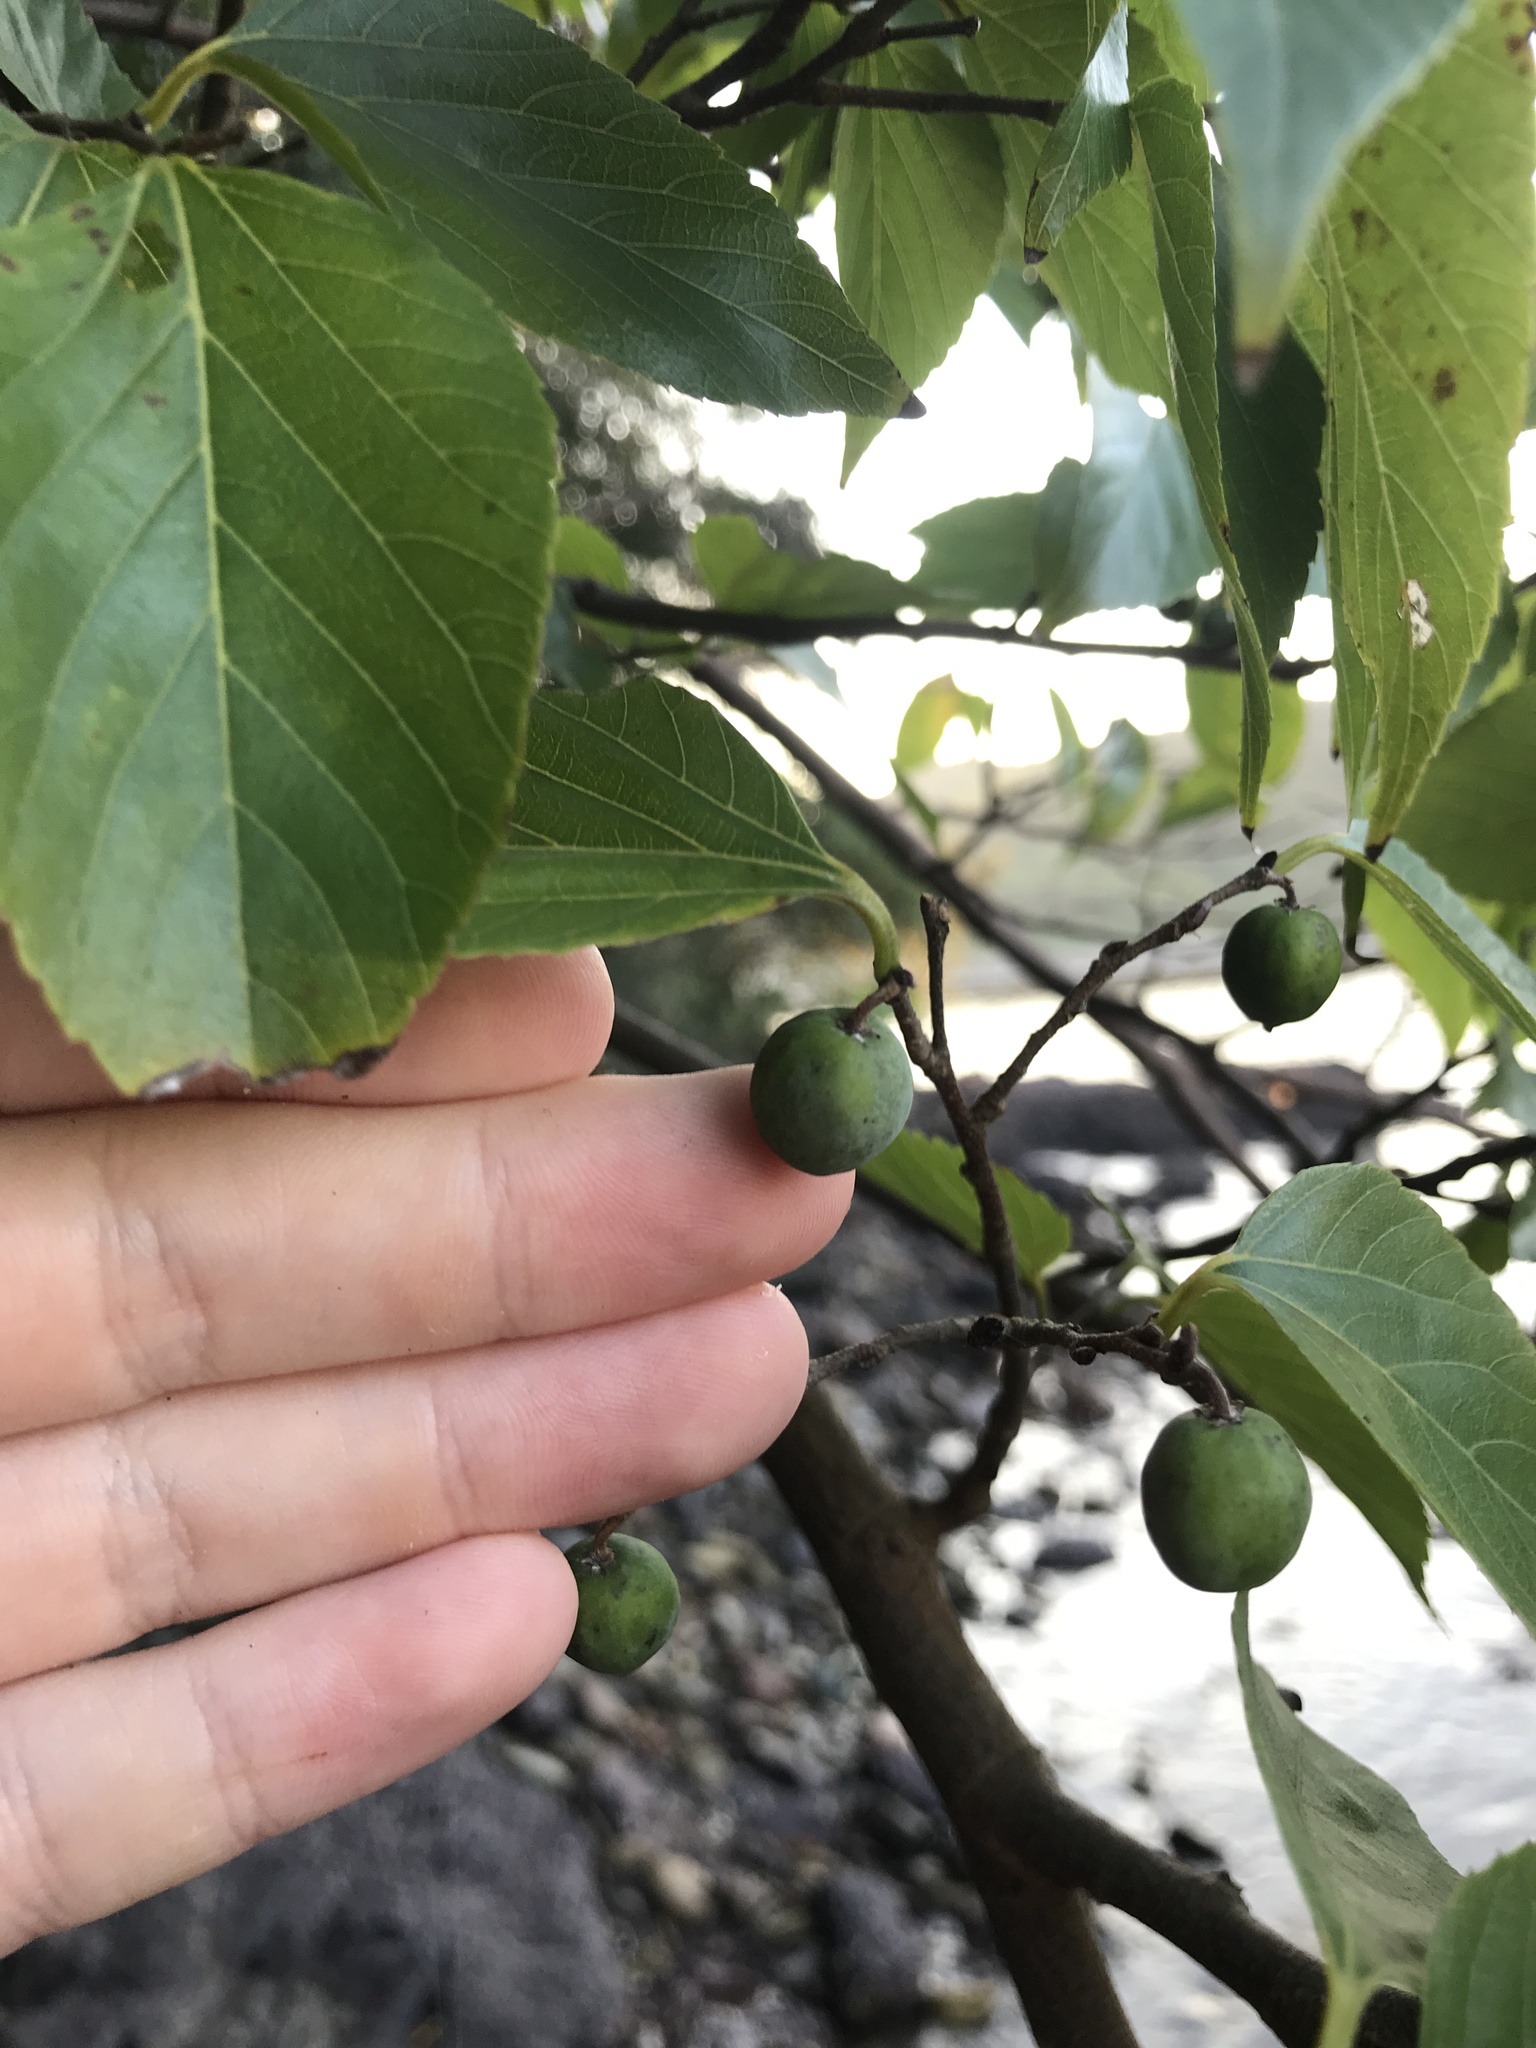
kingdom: Plantae
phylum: Tracheophyta
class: Magnoliopsida
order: Rosales
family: Cannabaceae
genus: Aphananthe
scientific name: Aphananthe aspera
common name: Mukutree
